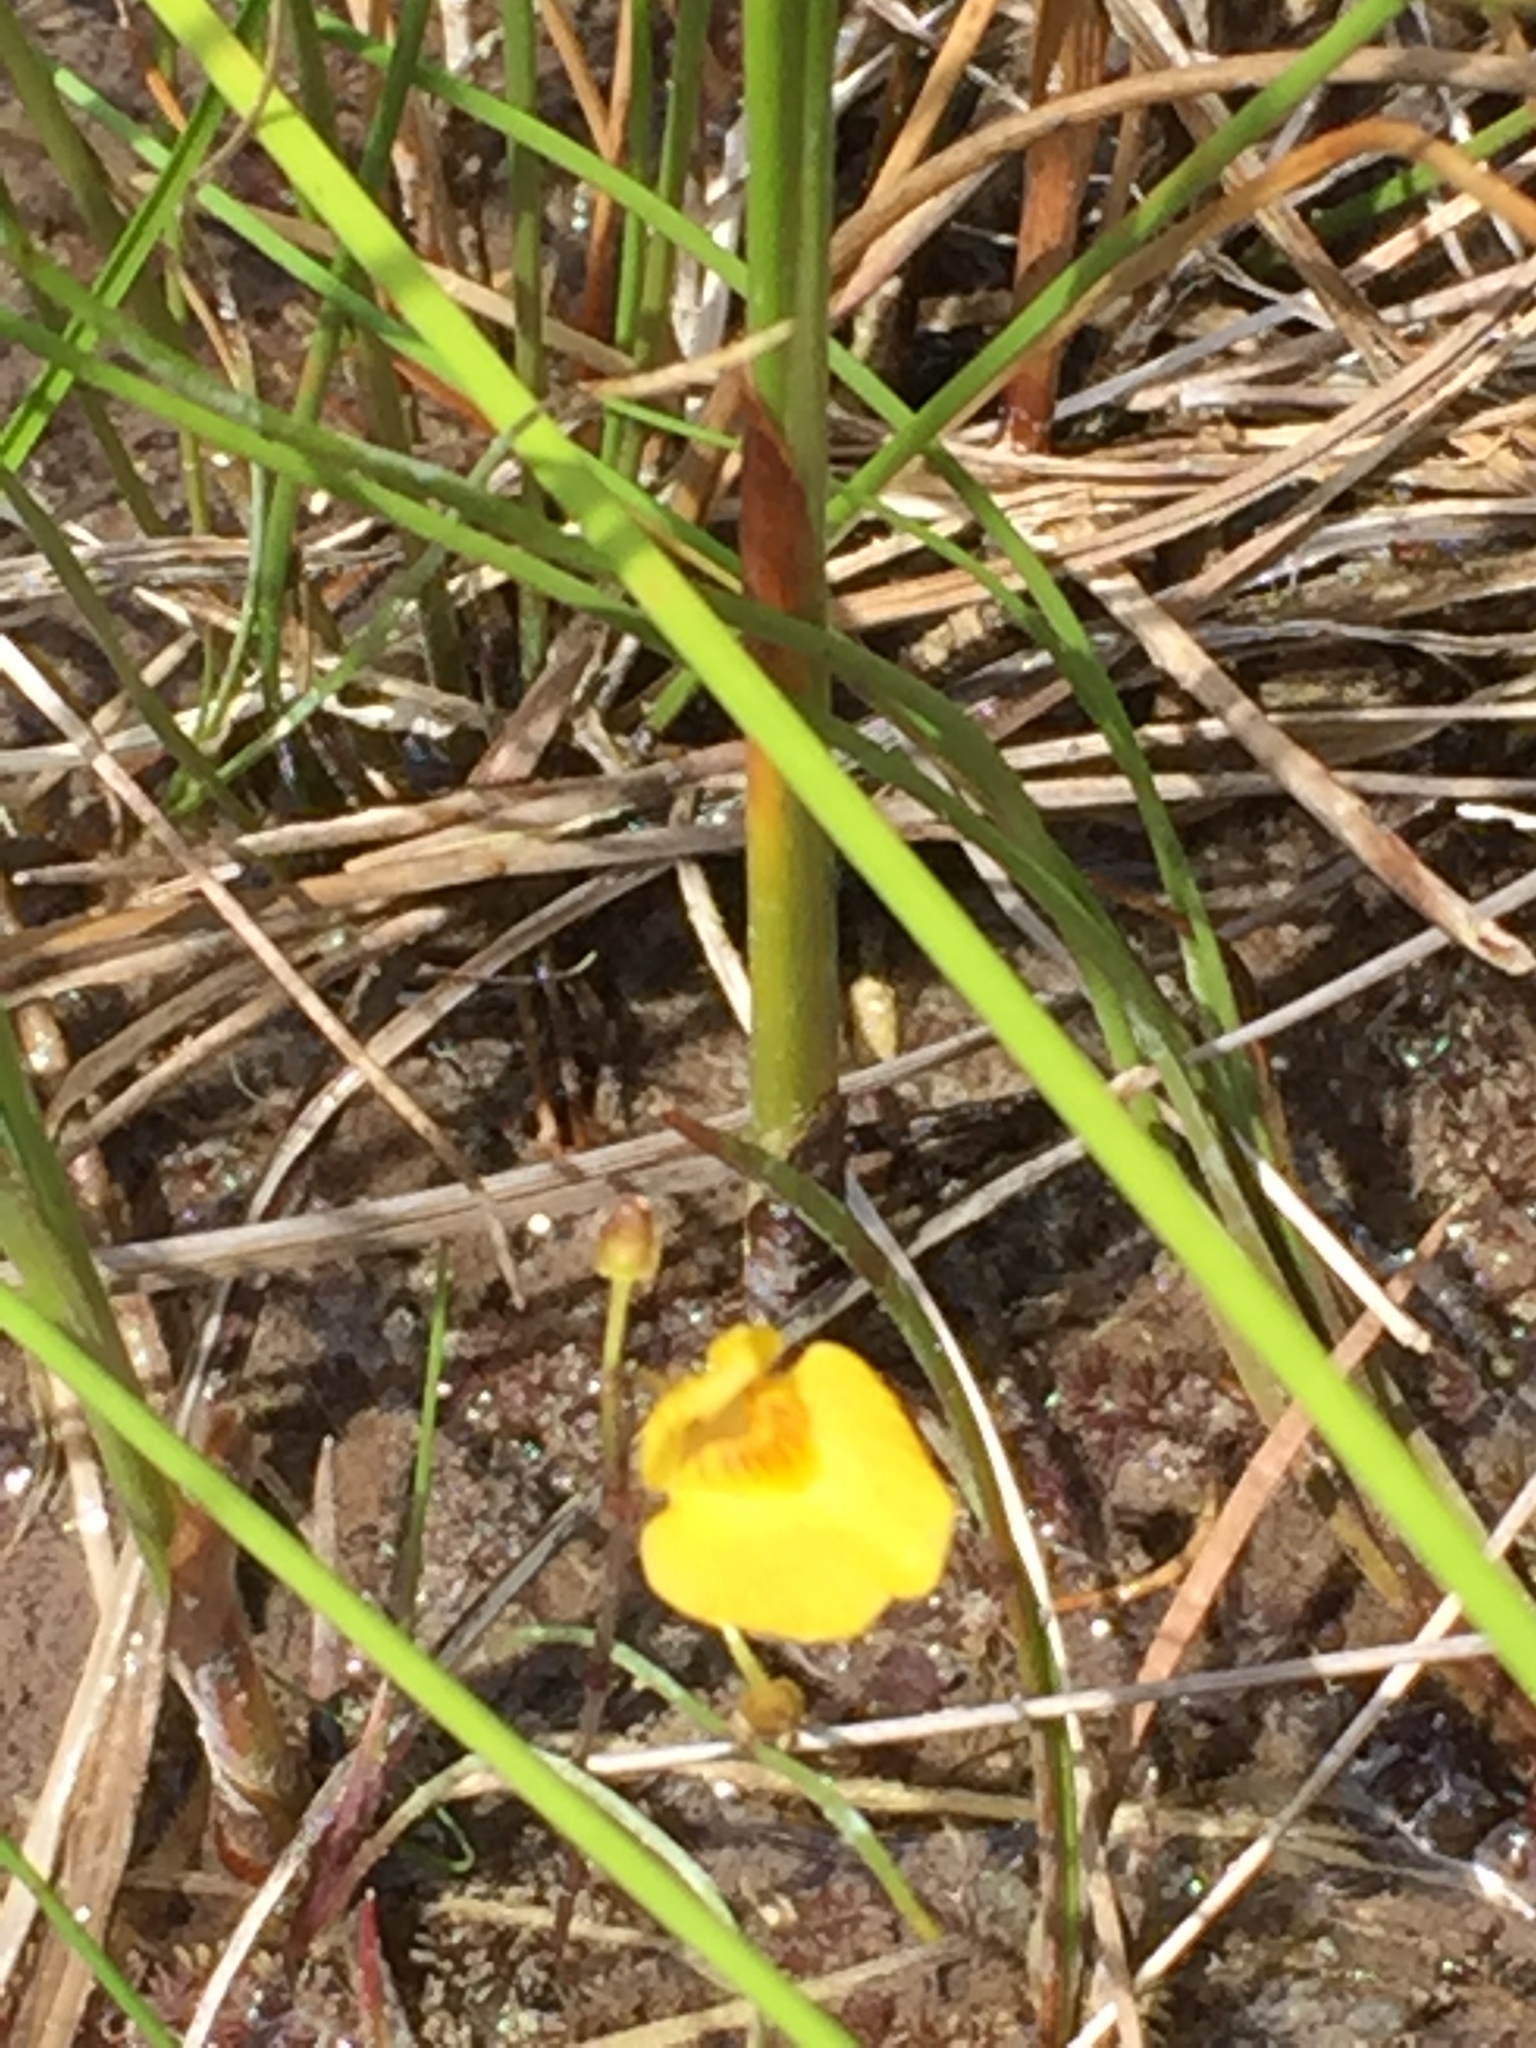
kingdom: Plantae
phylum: Tracheophyta
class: Magnoliopsida
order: Lamiales
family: Lentibulariaceae
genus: Utricularia
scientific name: Utricularia intermedia
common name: Intermediate bladderwort
